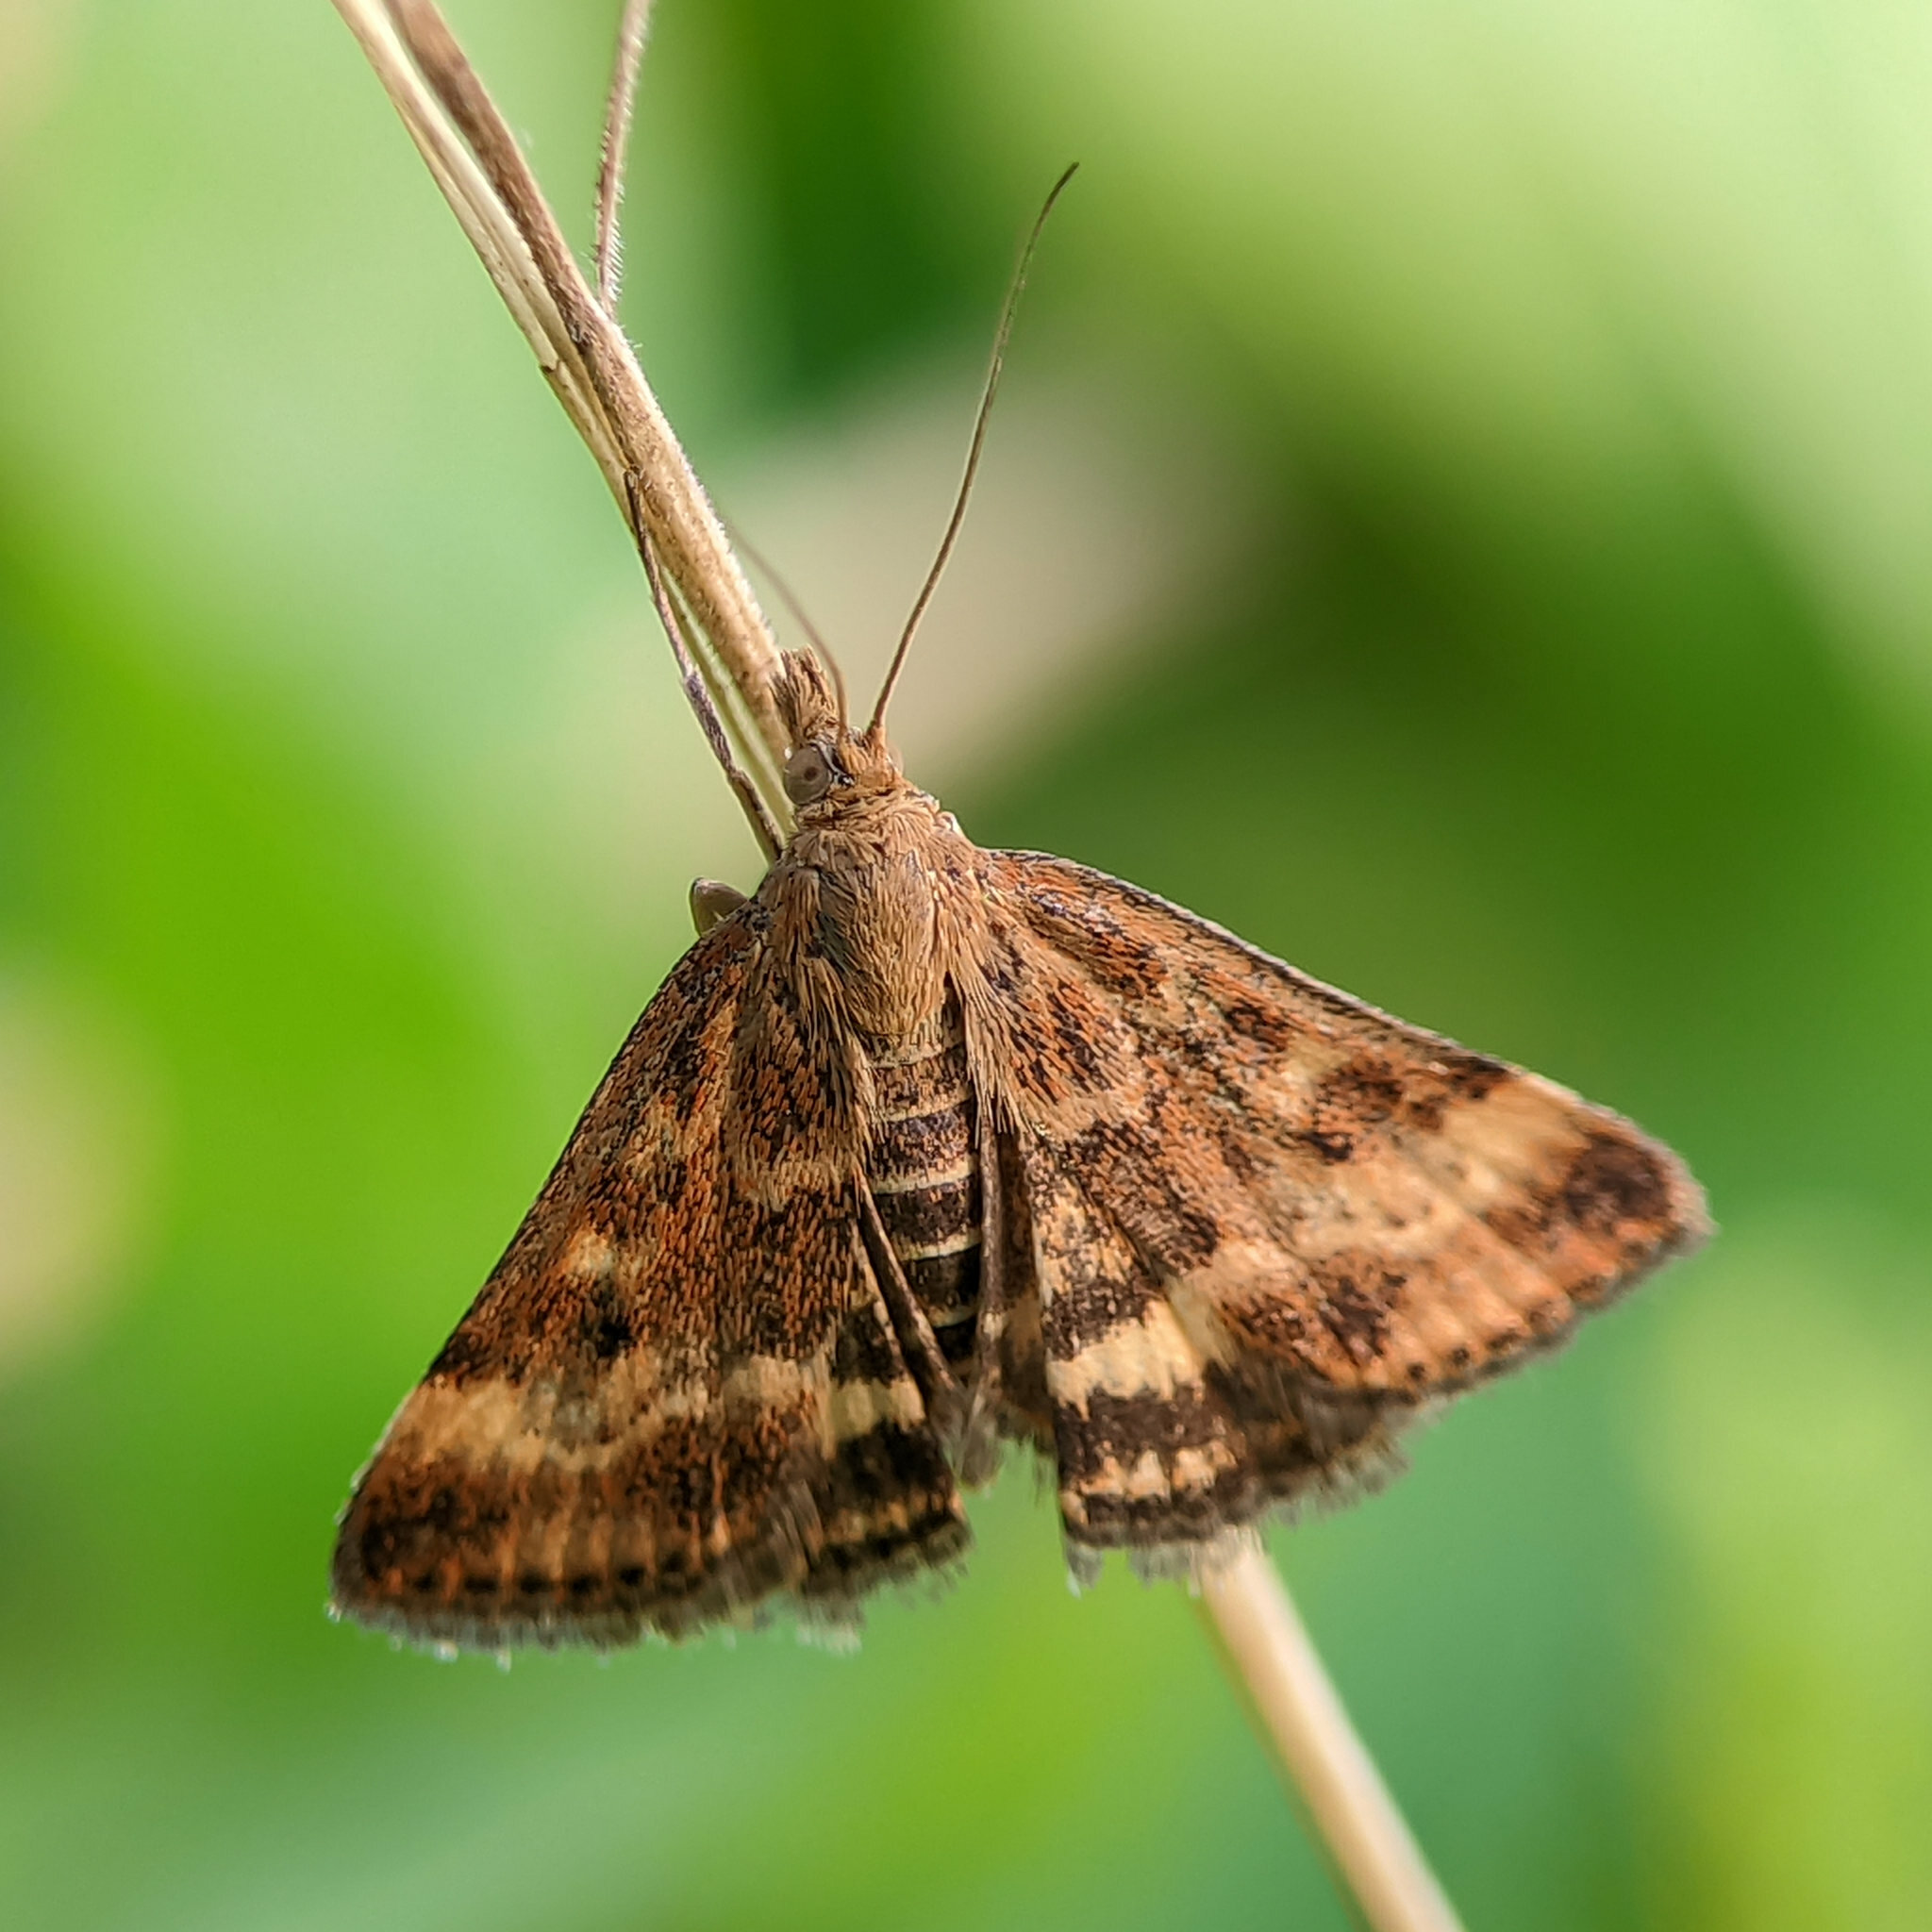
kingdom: Animalia
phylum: Arthropoda
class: Insecta
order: Lepidoptera
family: Crambidae
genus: Pyrausta
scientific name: Pyrausta despicata
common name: Straw-barred pearl
